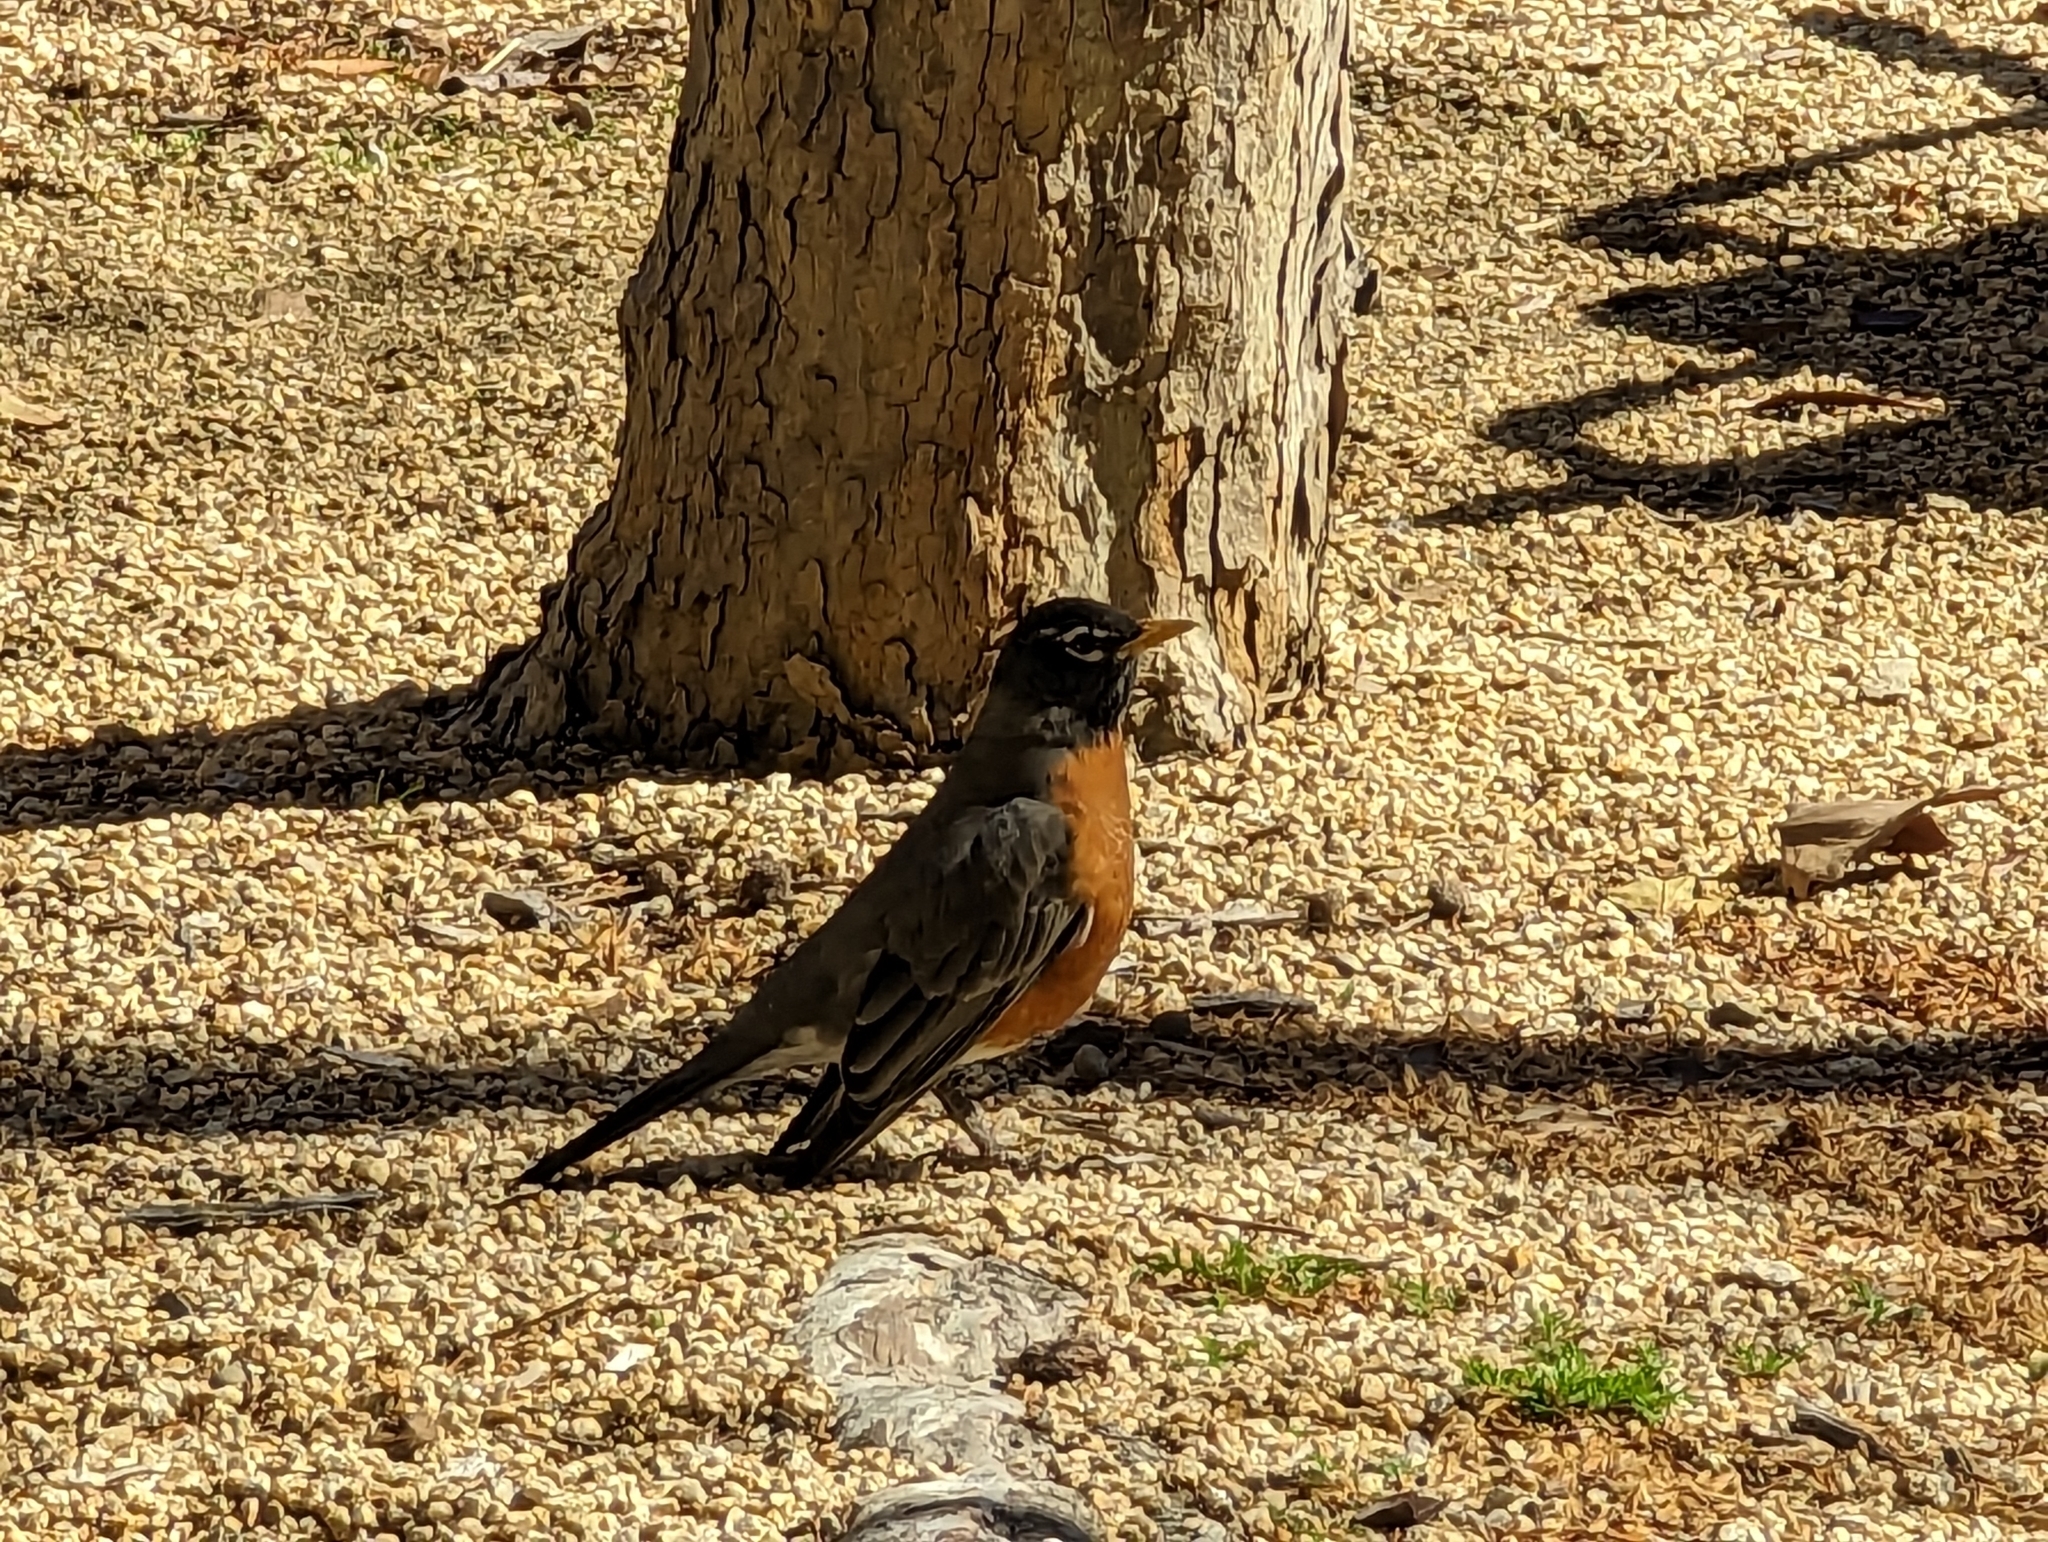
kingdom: Animalia
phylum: Chordata
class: Aves
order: Passeriformes
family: Turdidae
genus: Turdus
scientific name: Turdus migratorius
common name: American robin
